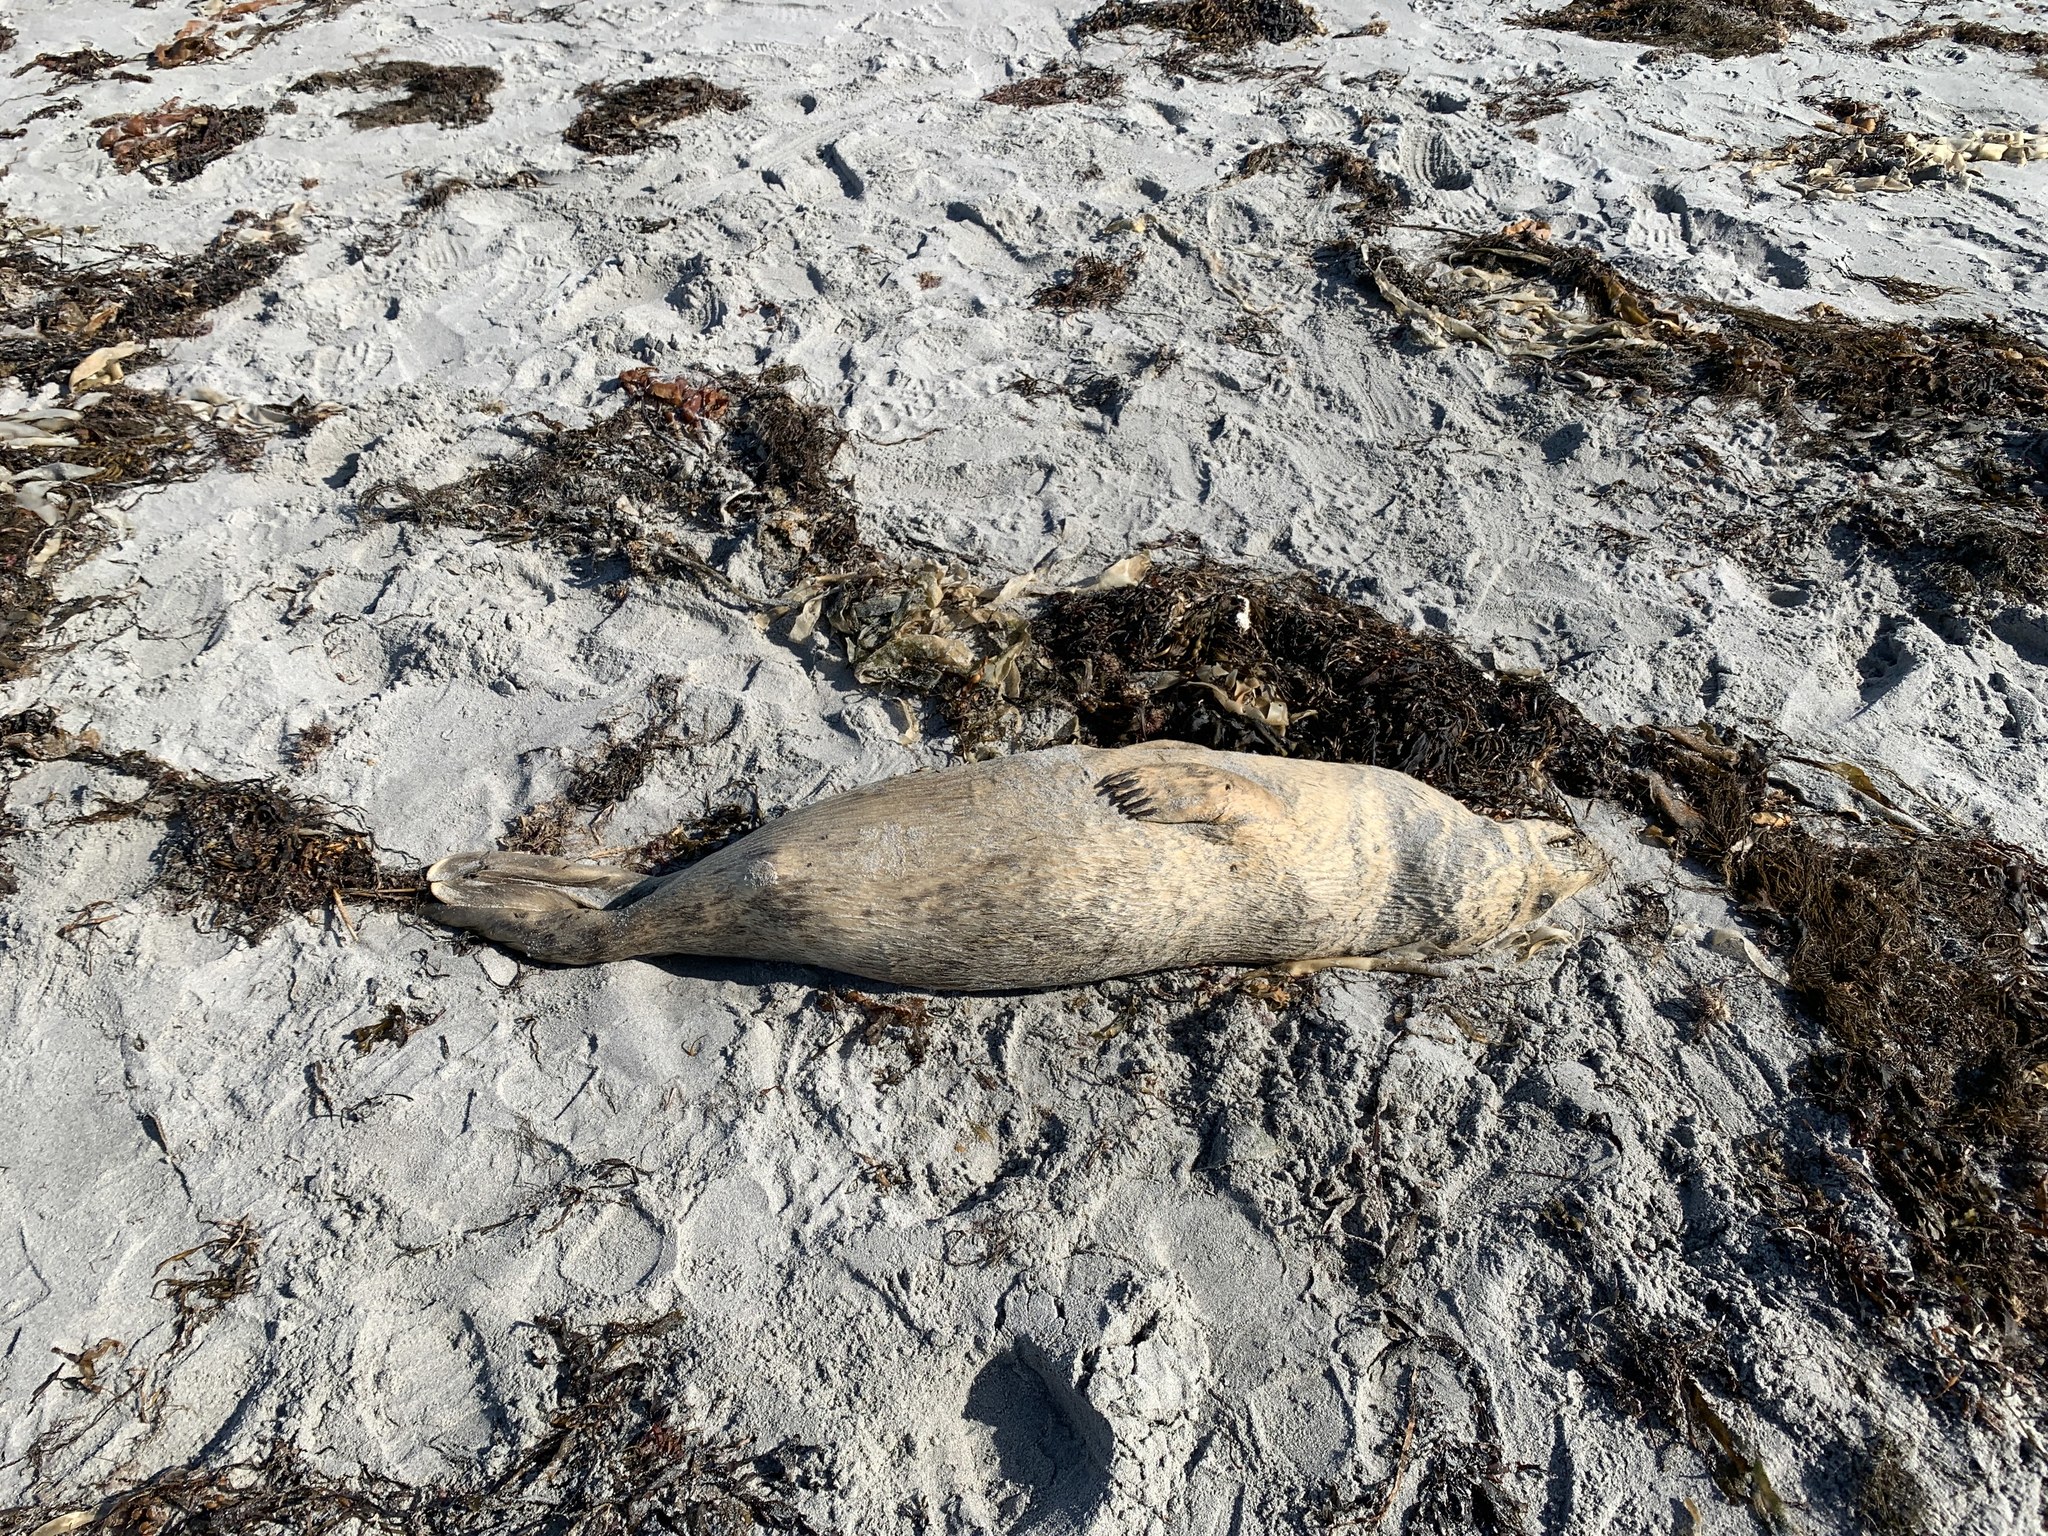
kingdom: Animalia
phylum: Chordata
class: Mammalia
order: Carnivora
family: Phocidae
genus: Halichoerus
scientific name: Halichoerus grypus
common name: Grey seal
